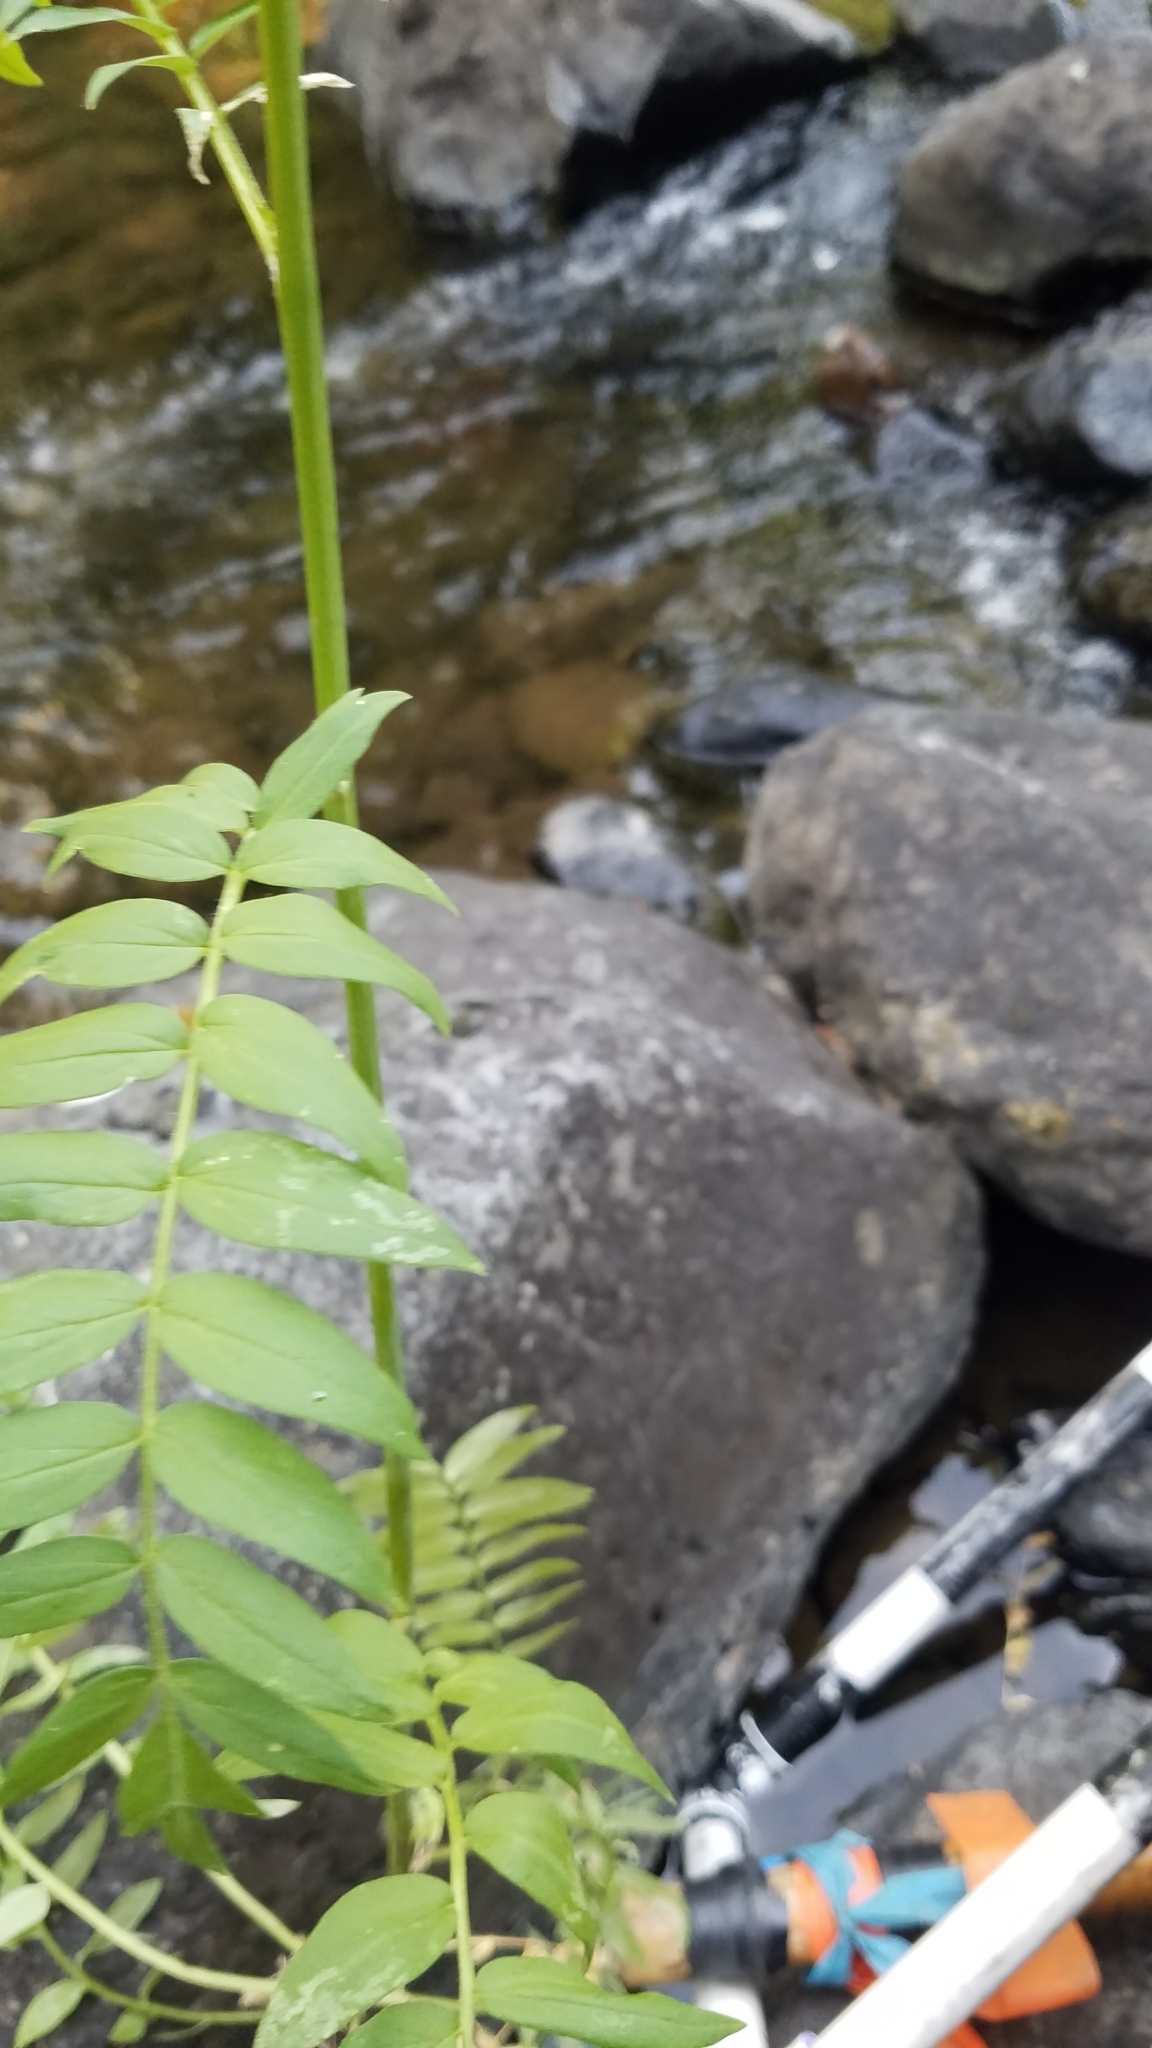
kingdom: Plantae
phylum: Tracheophyta
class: Magnoliopsida
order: Ericales
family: Polemoniaceae
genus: Polemonium
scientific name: Polemonium occidentale
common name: Western jacob's-ladder
